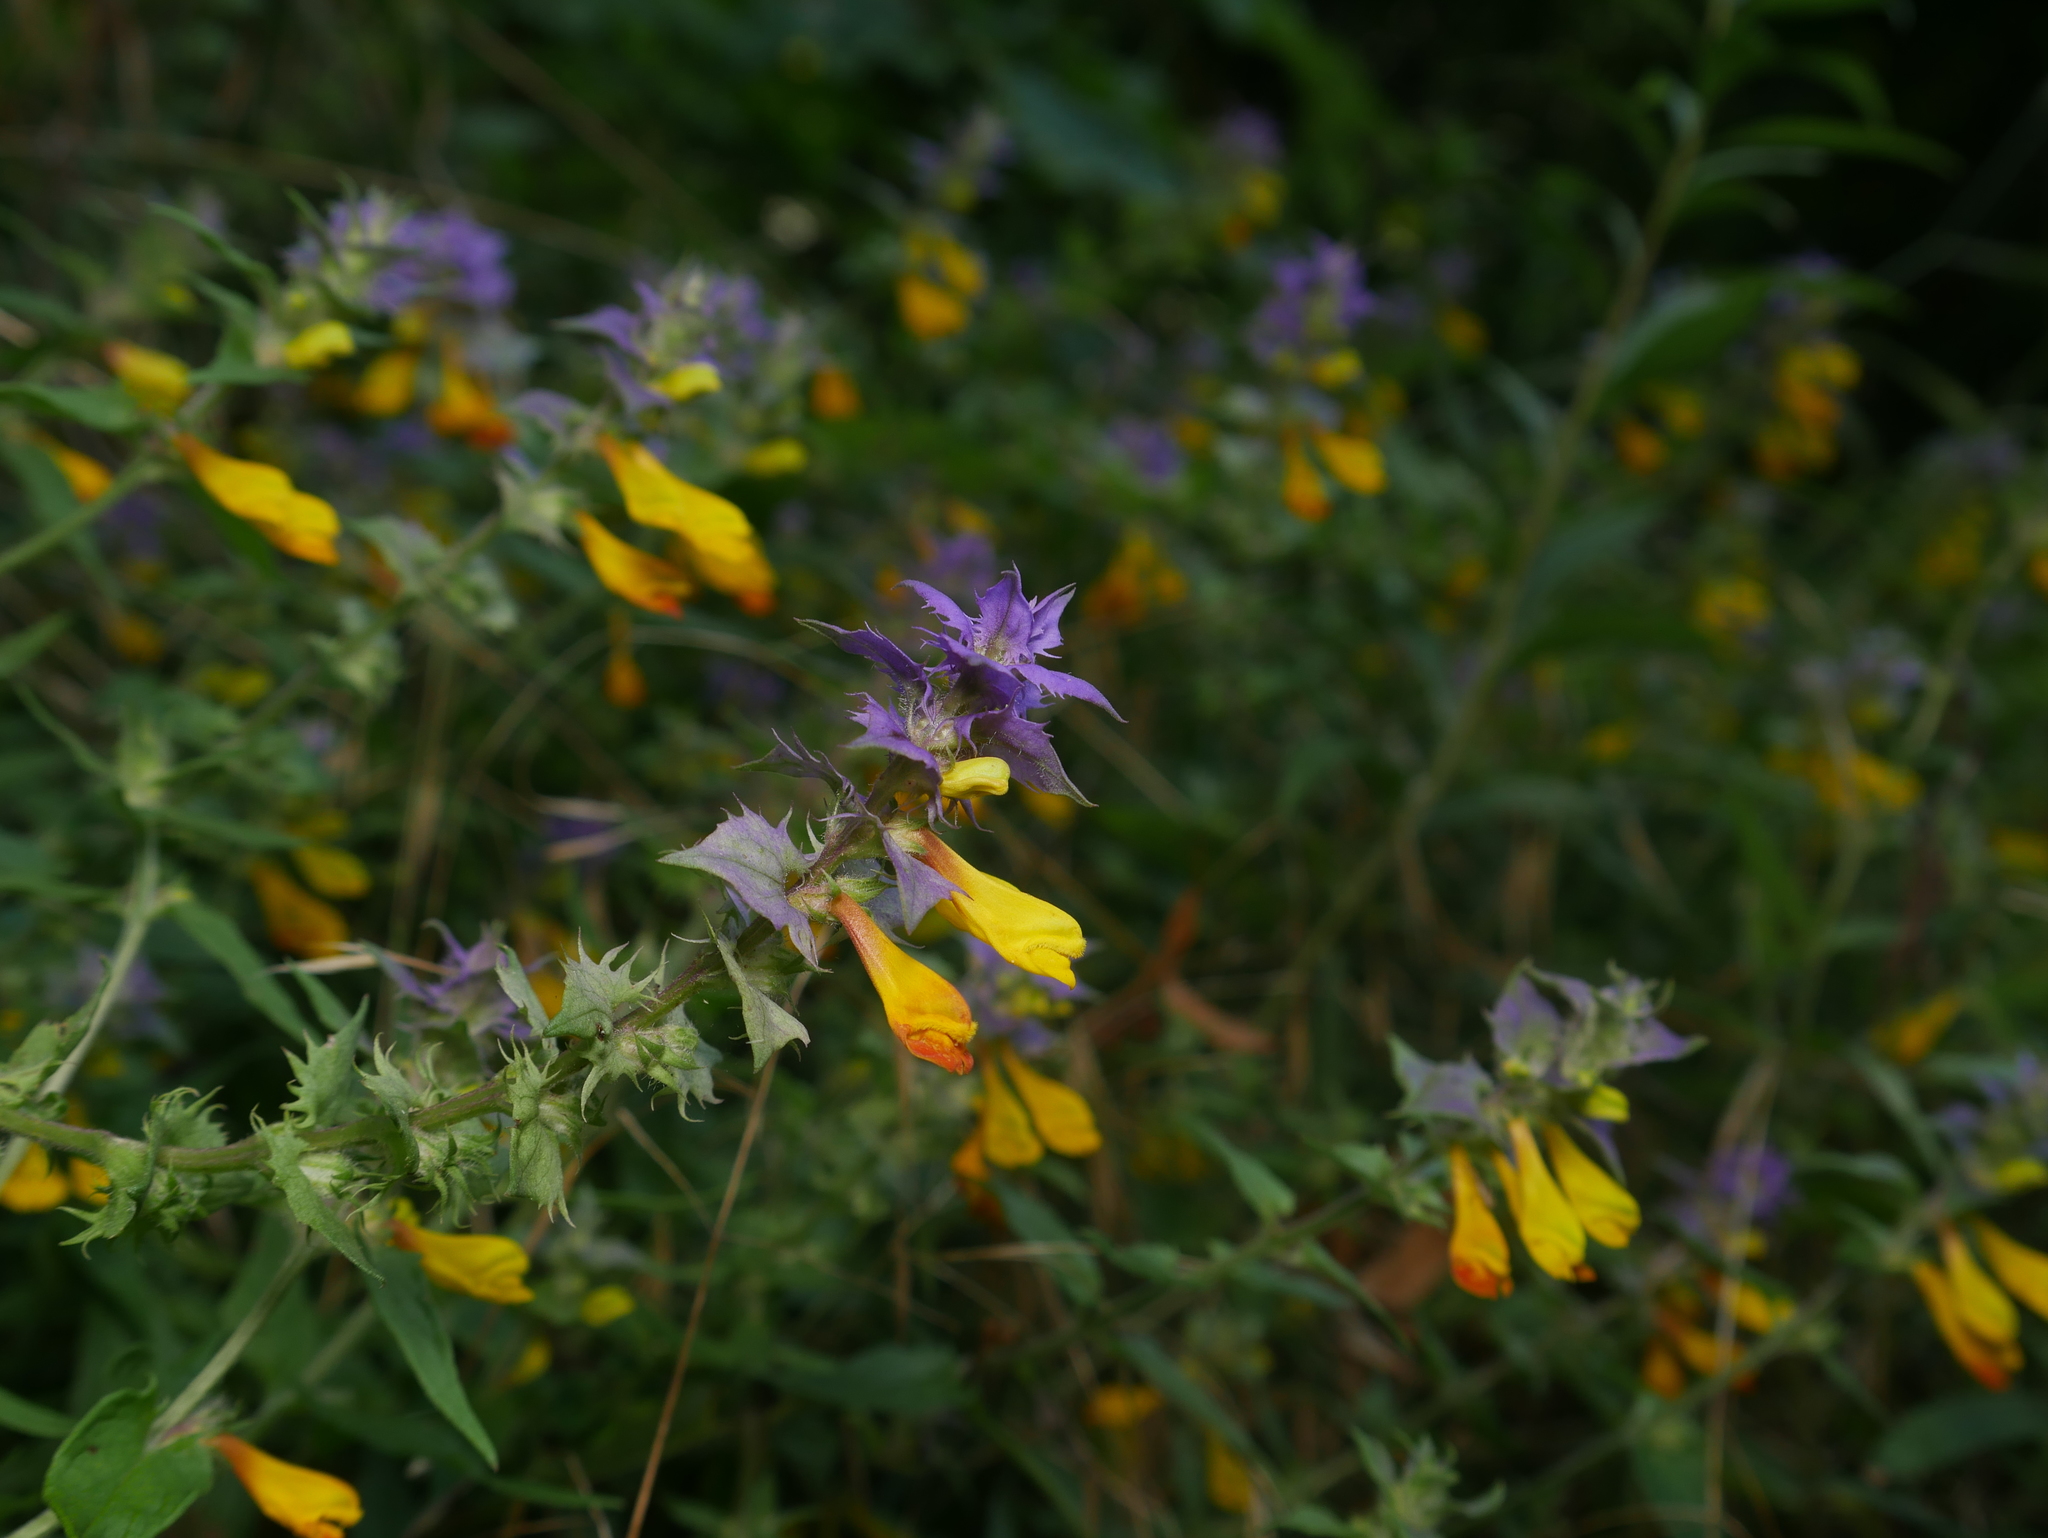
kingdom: Plantae
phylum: Tracheophyta
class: Magnoliopsida
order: Lamiales
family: Orobanchaceae
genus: Melampyrum
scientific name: Melampyrum nemorosum
